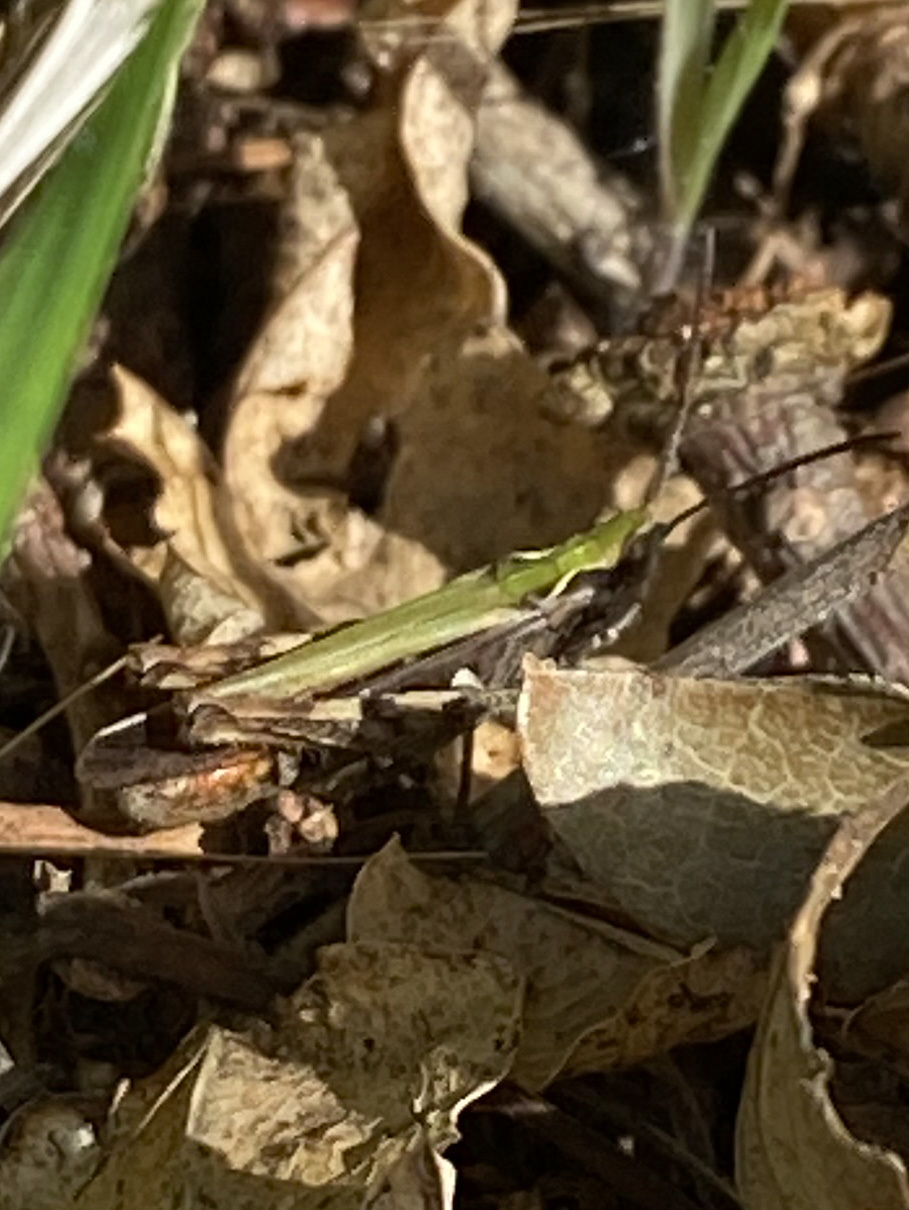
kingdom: Animalia
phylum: Arthropoda
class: Insecta
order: Orthoptera
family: Acrididae
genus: Chorthippus
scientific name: Chorthippus brunneus
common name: Field grasshopper
